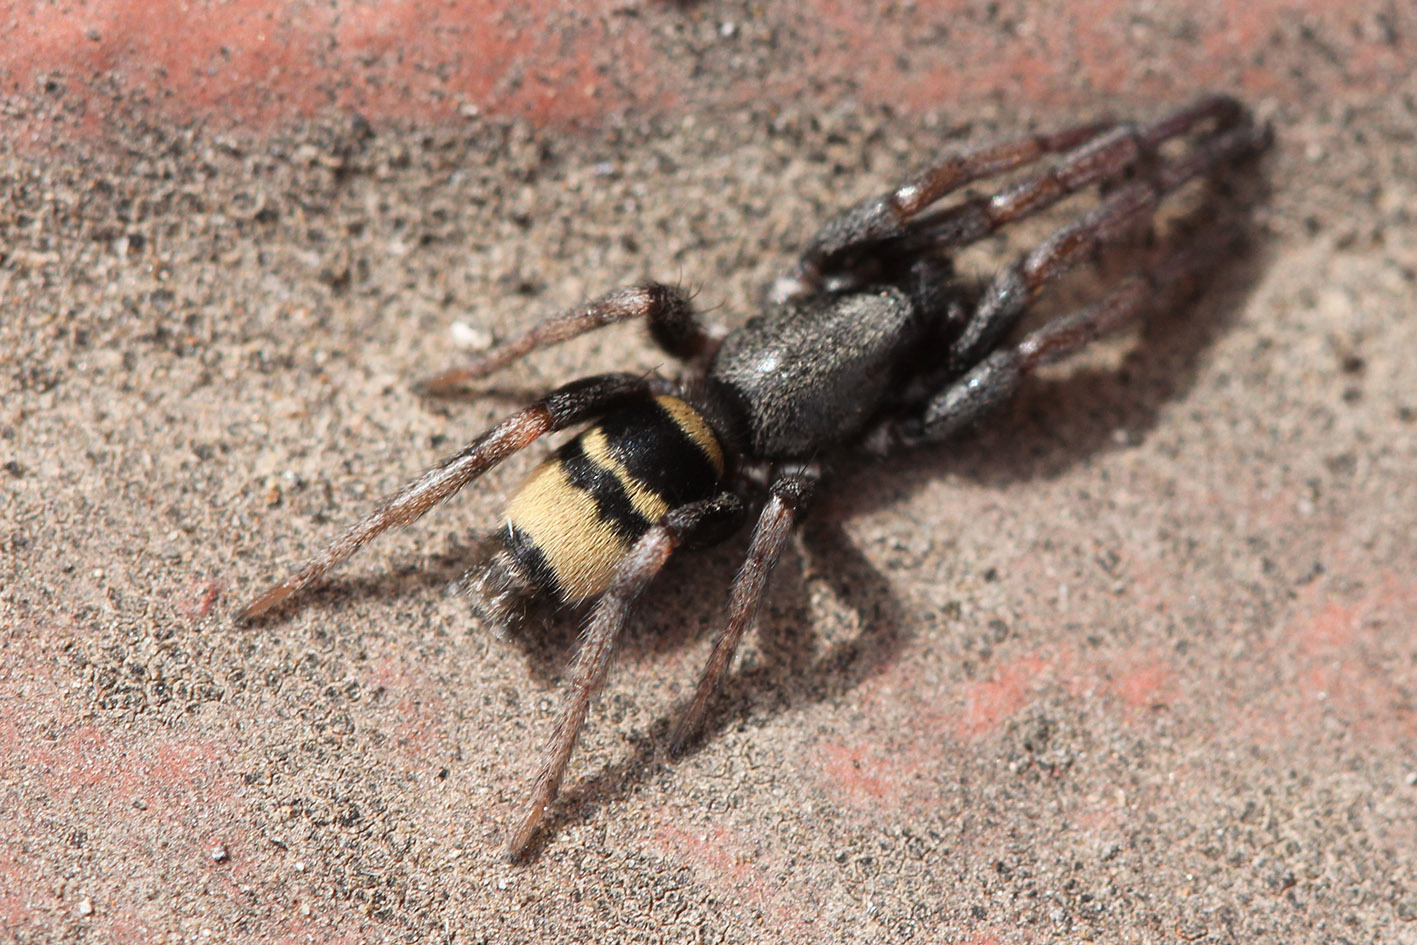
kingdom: Animalia
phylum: Arthropoda
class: Arachnida
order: Araneae
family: Gnaphosidae
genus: Latonigena
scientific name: Latonigena auricomis
